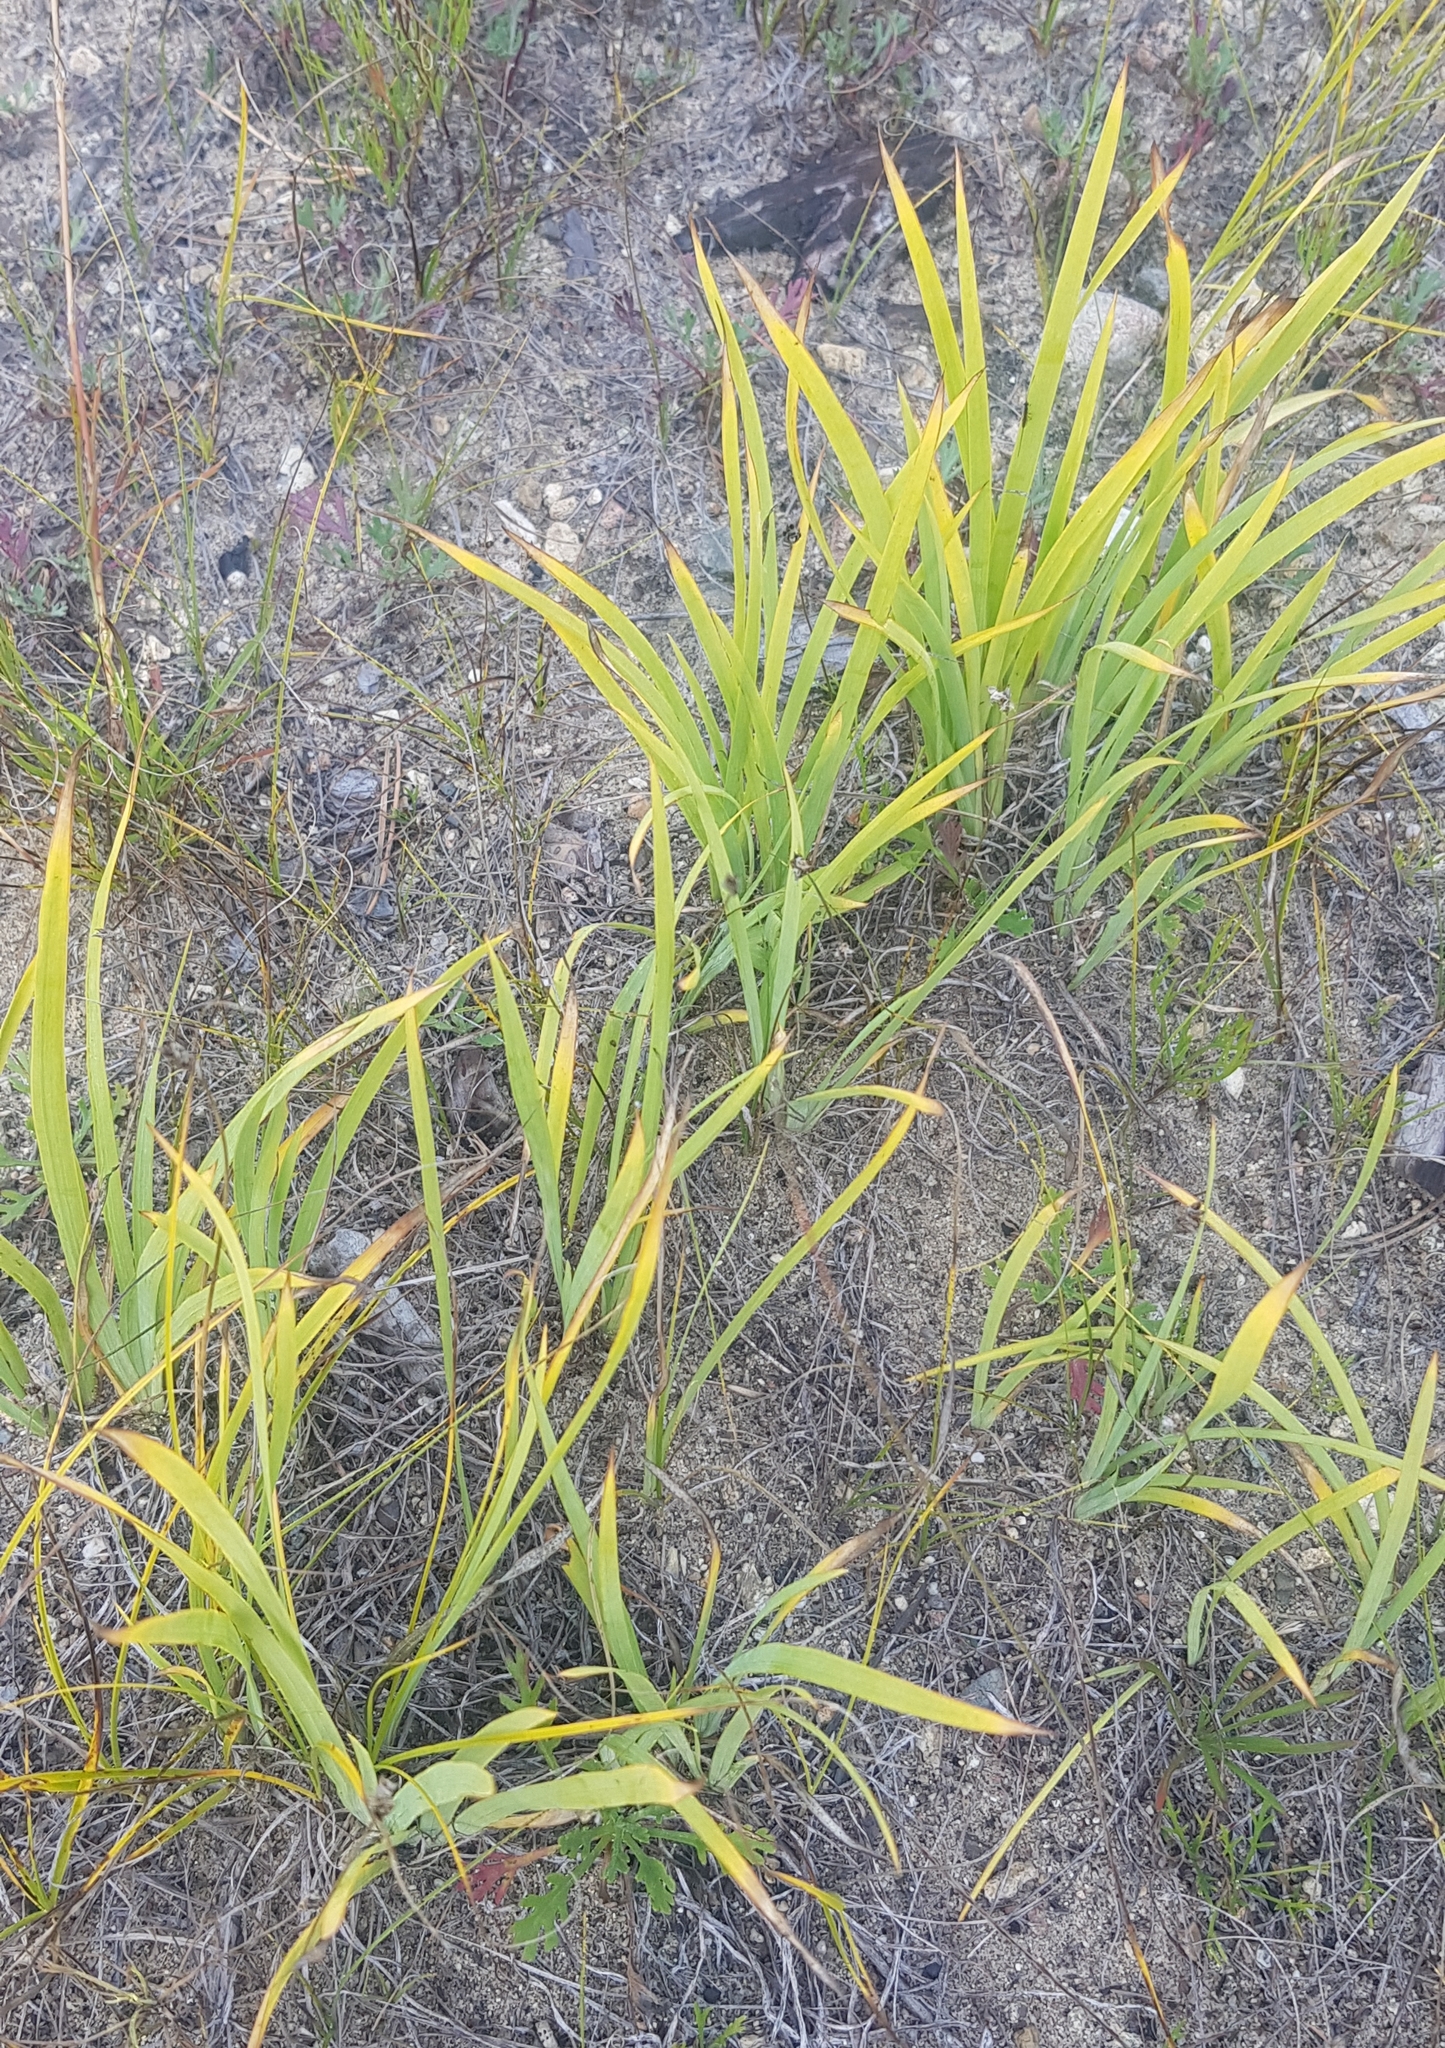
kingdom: Plantae
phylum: Tracheophyta
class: Liliopsida
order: Asparagales
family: Iridaceae
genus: Iris
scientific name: Iris humilis
